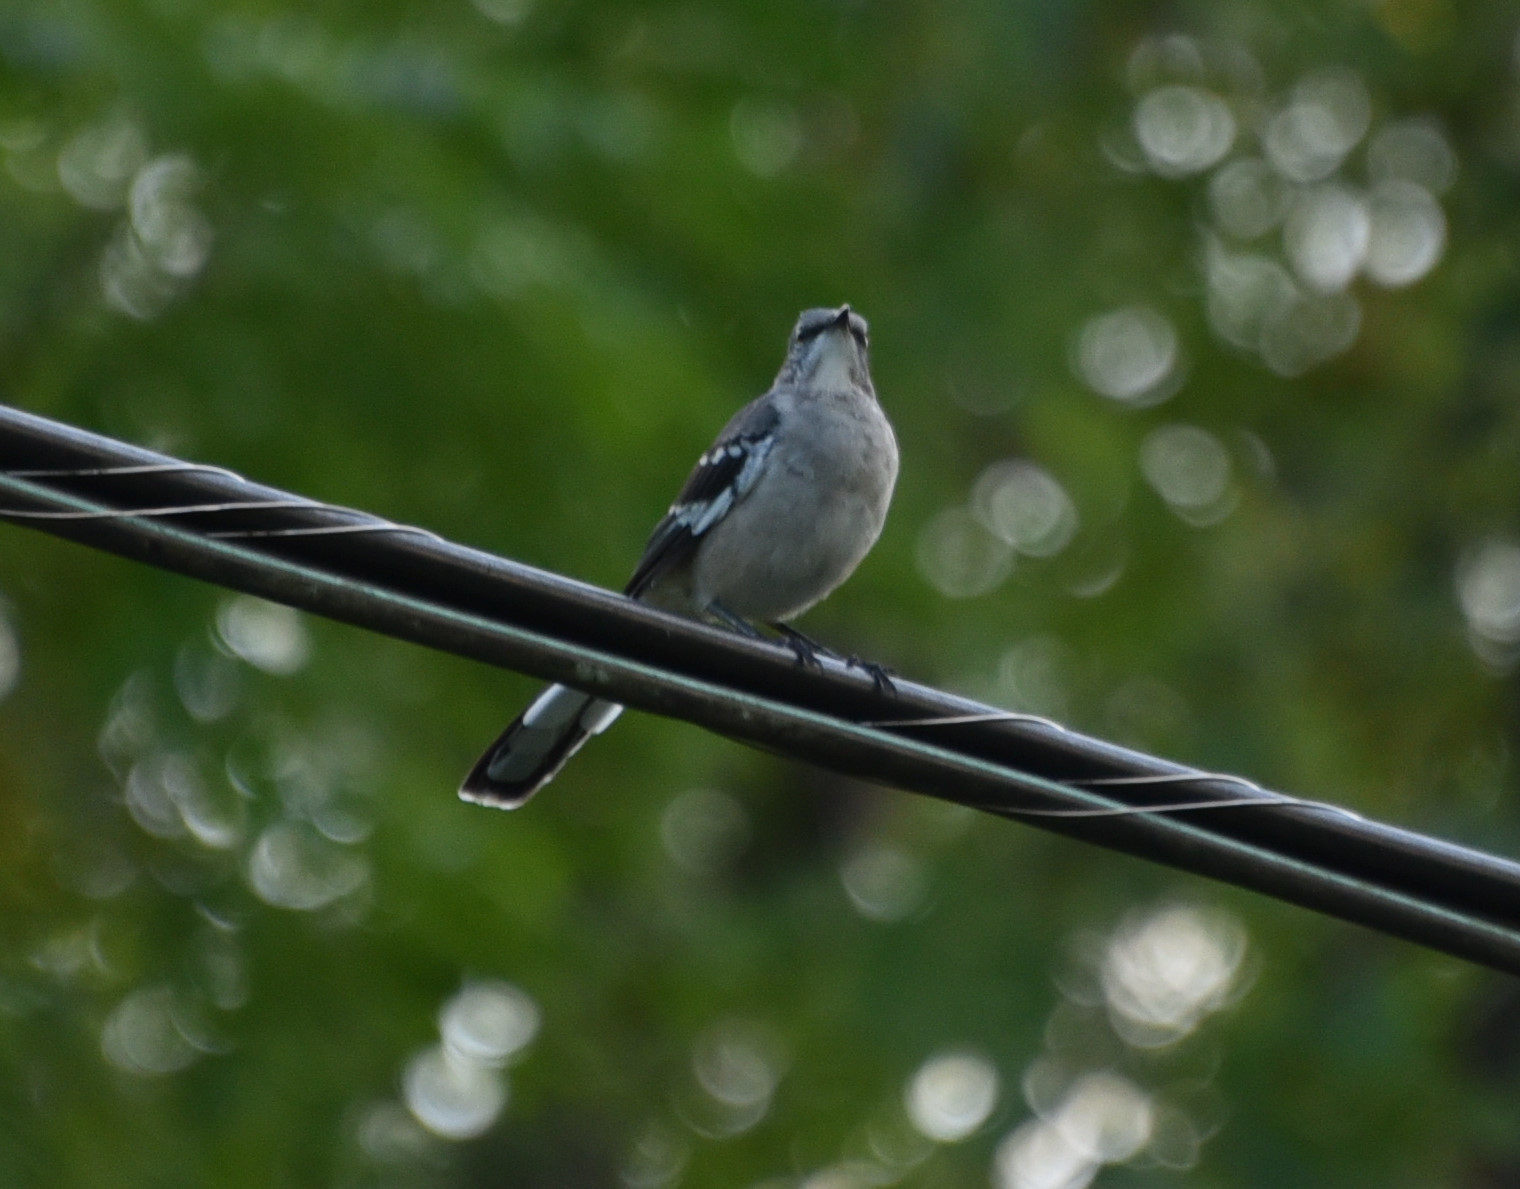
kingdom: Animalia
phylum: Chordata
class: Aves
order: Passeriformes
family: Mimidae
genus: Mimus
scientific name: Mimus polyglottos
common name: Northern mockingbird
